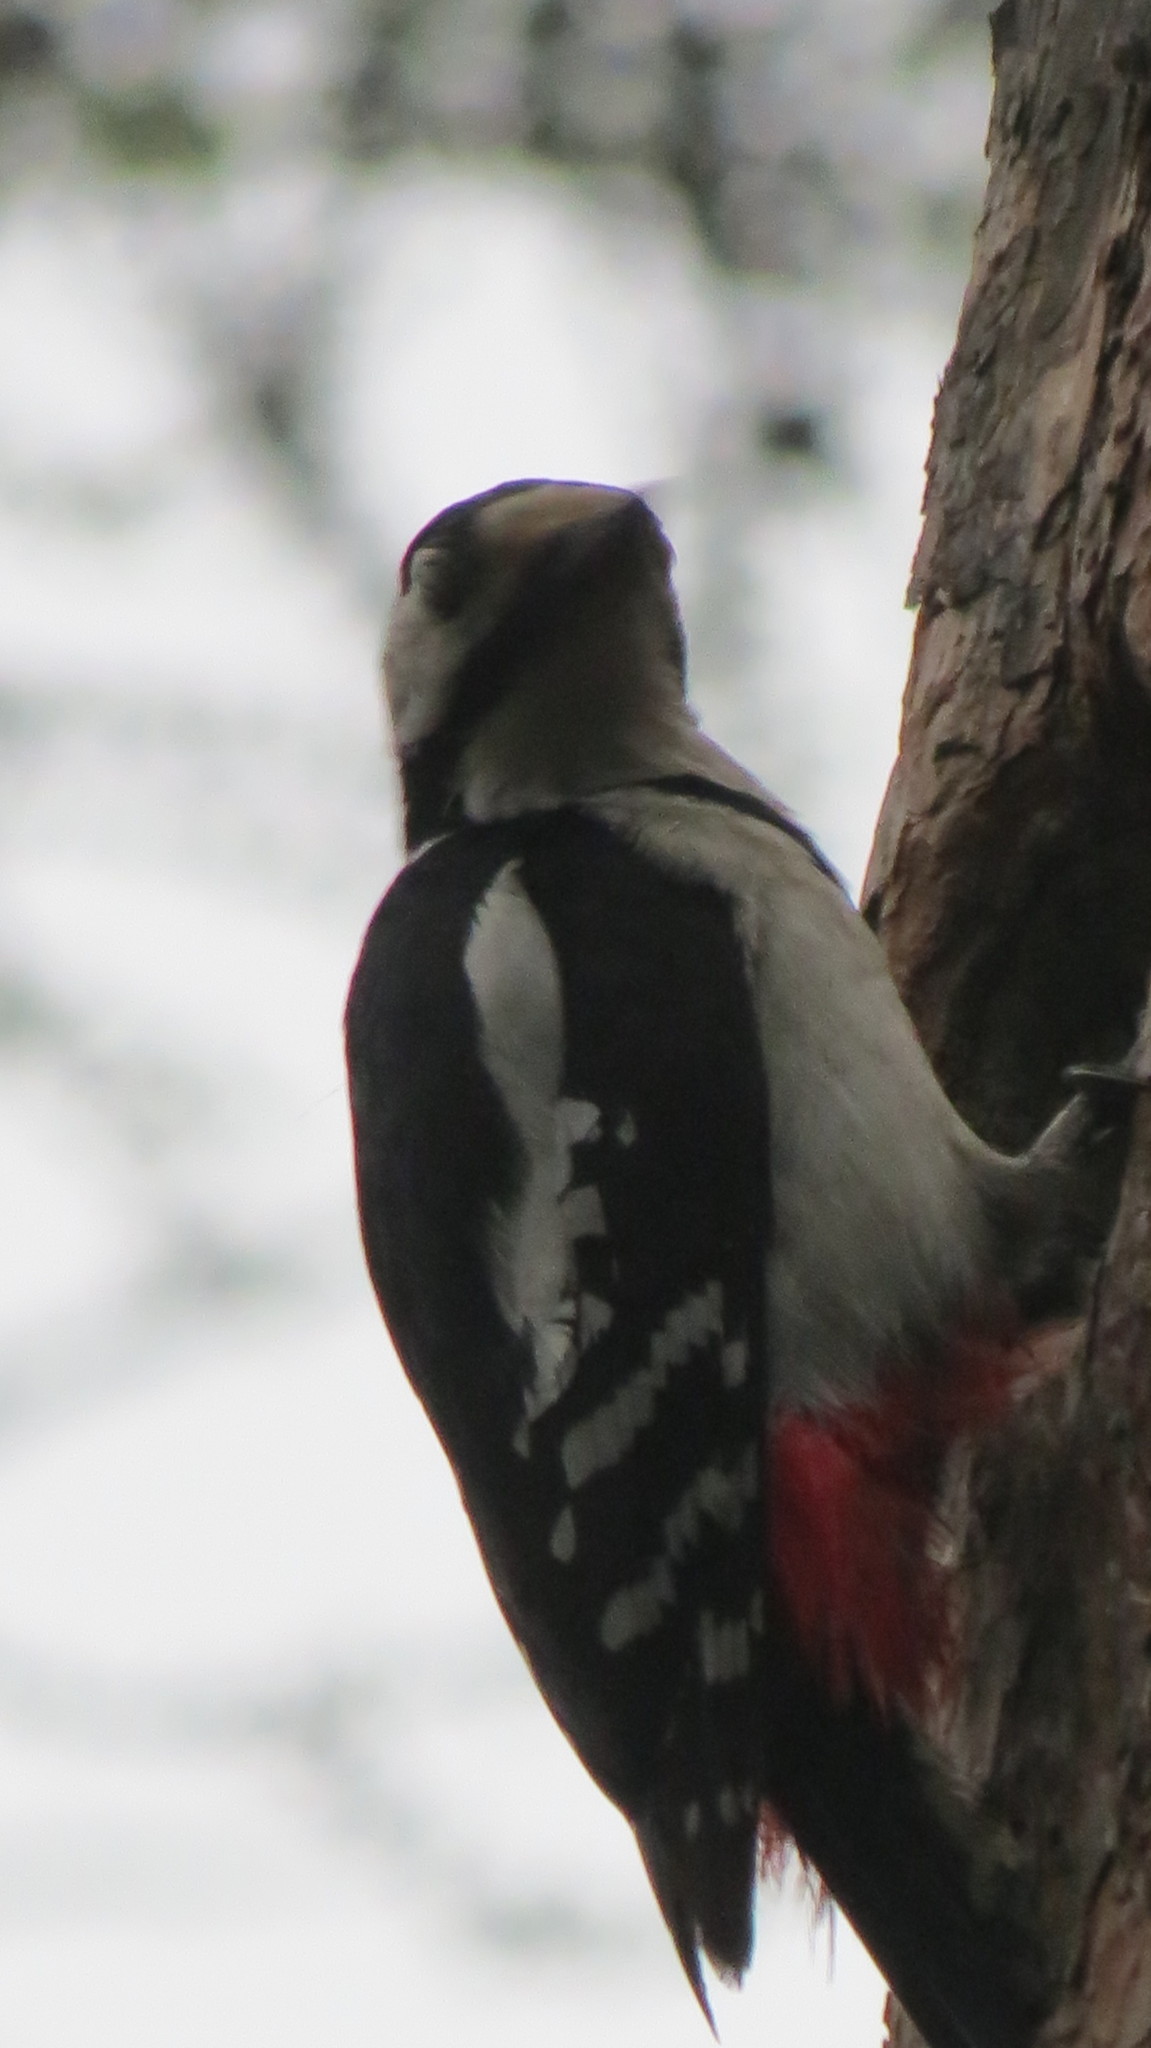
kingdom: Animalia
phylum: Chordata
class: Aves
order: Piciformes
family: Picidae
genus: Dendrocopos
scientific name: Dendrocopos major
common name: Great spotted woodpecker
